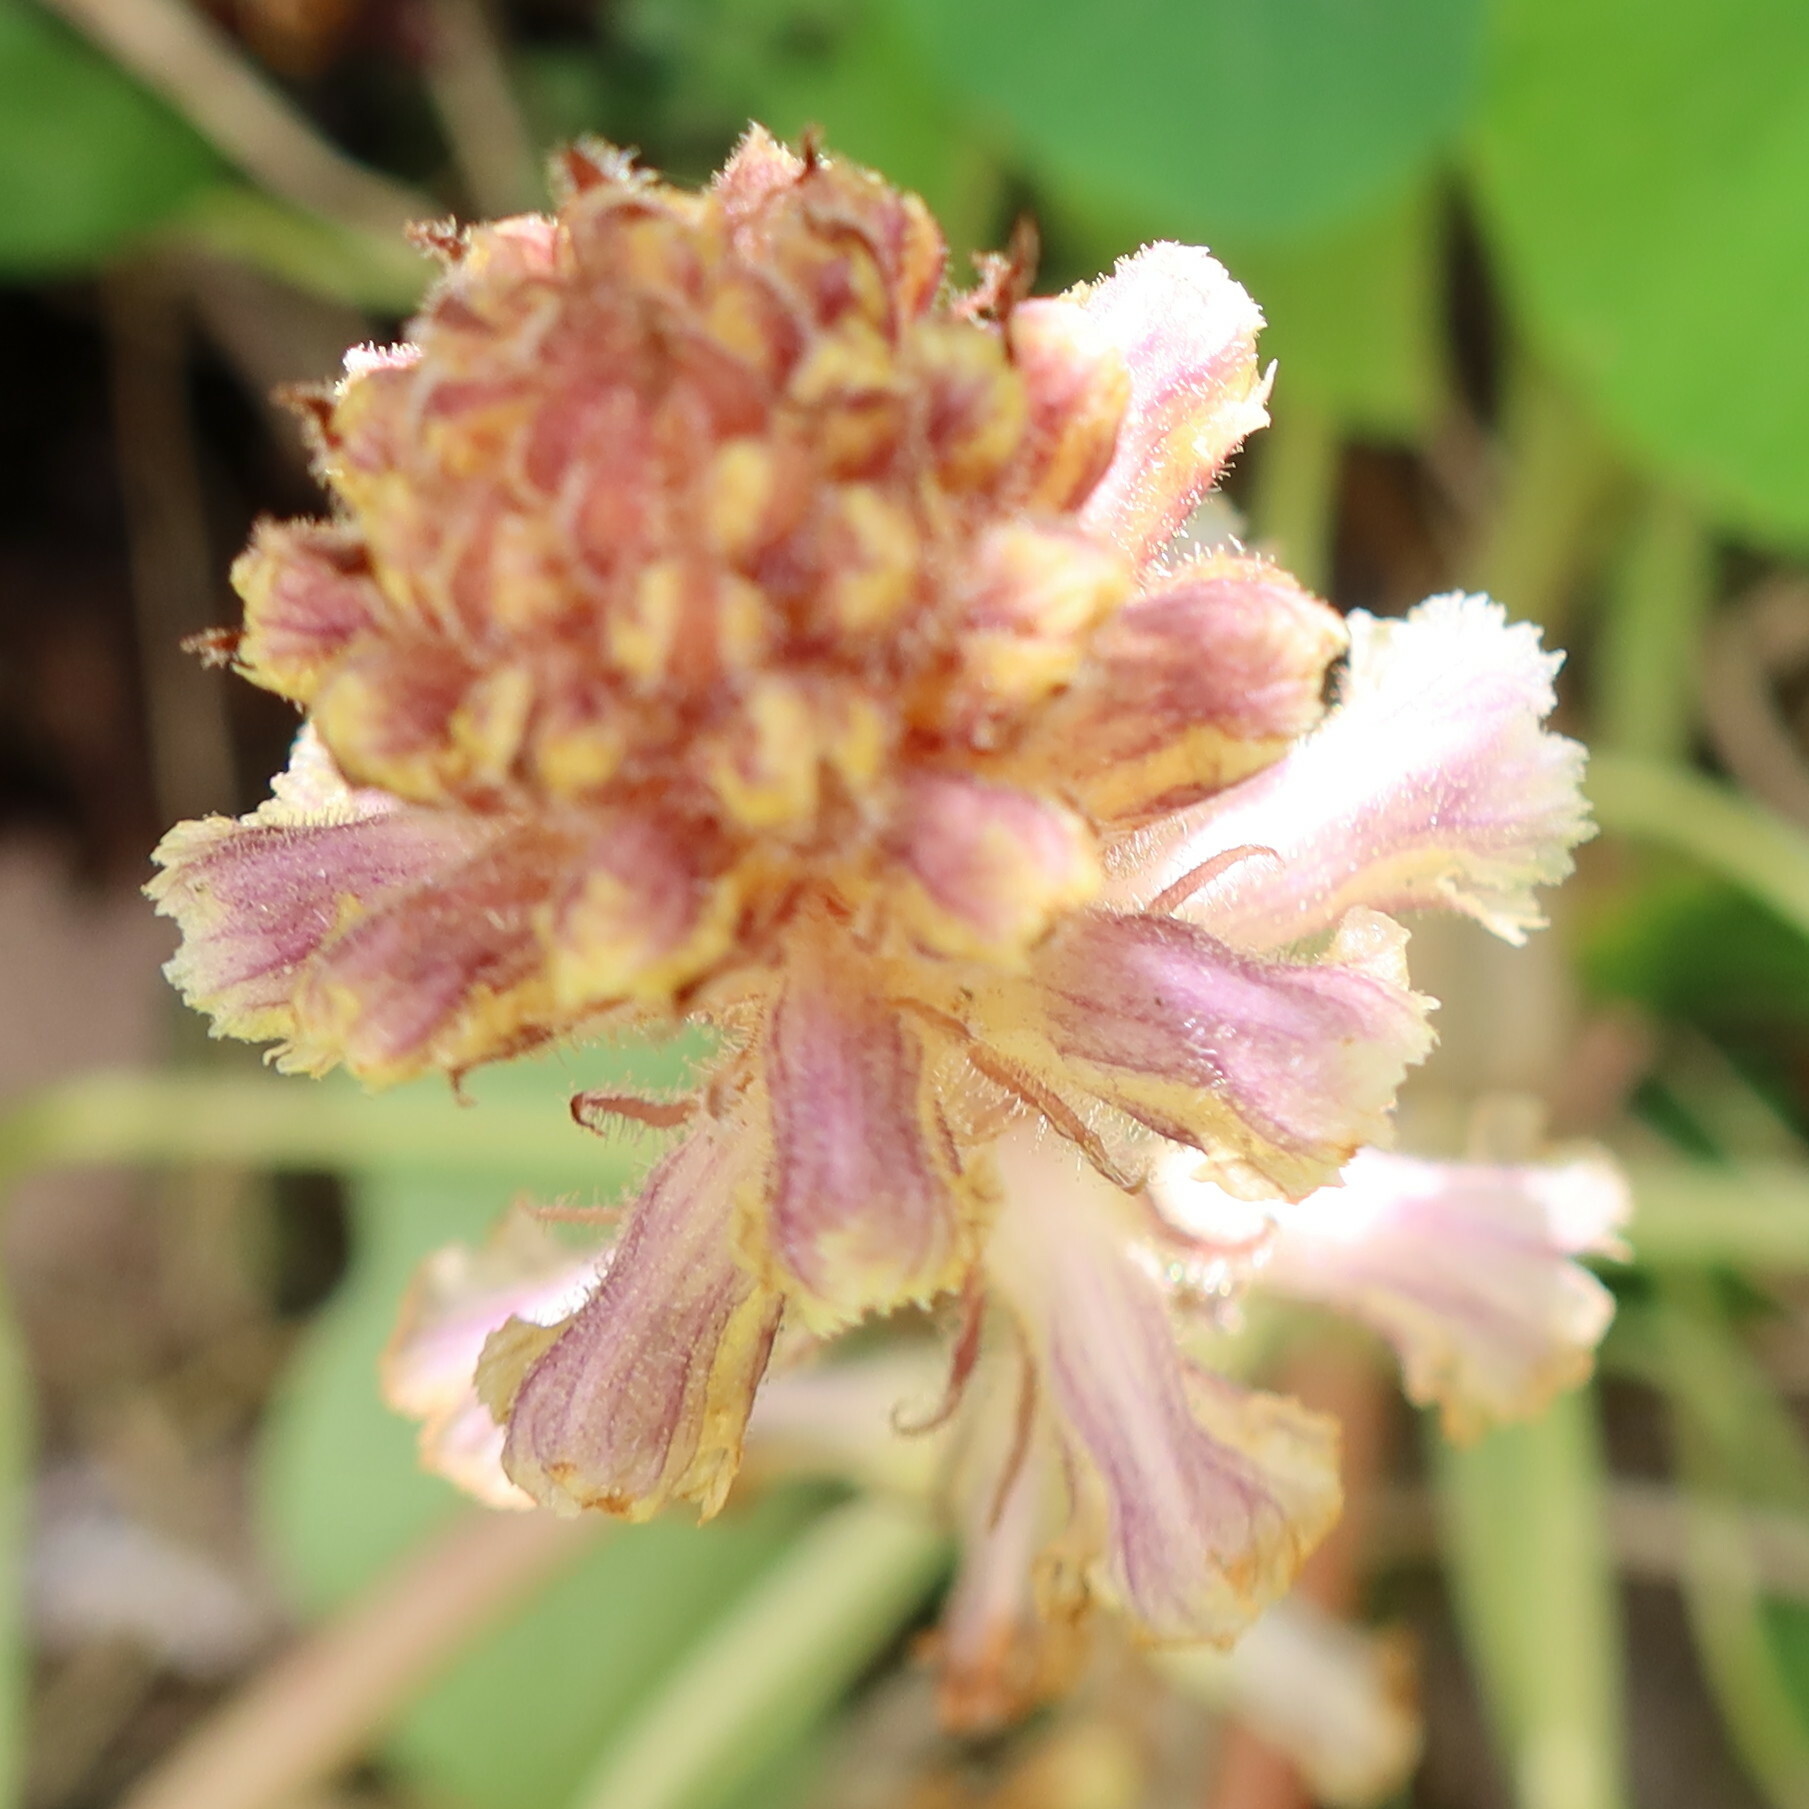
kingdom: Plantae
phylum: Tracheophyta
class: Magnoliopsida
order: Lamiales
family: Orobanchaceae
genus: Orobanche
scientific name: Orobanche minor
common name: Common broomrape
